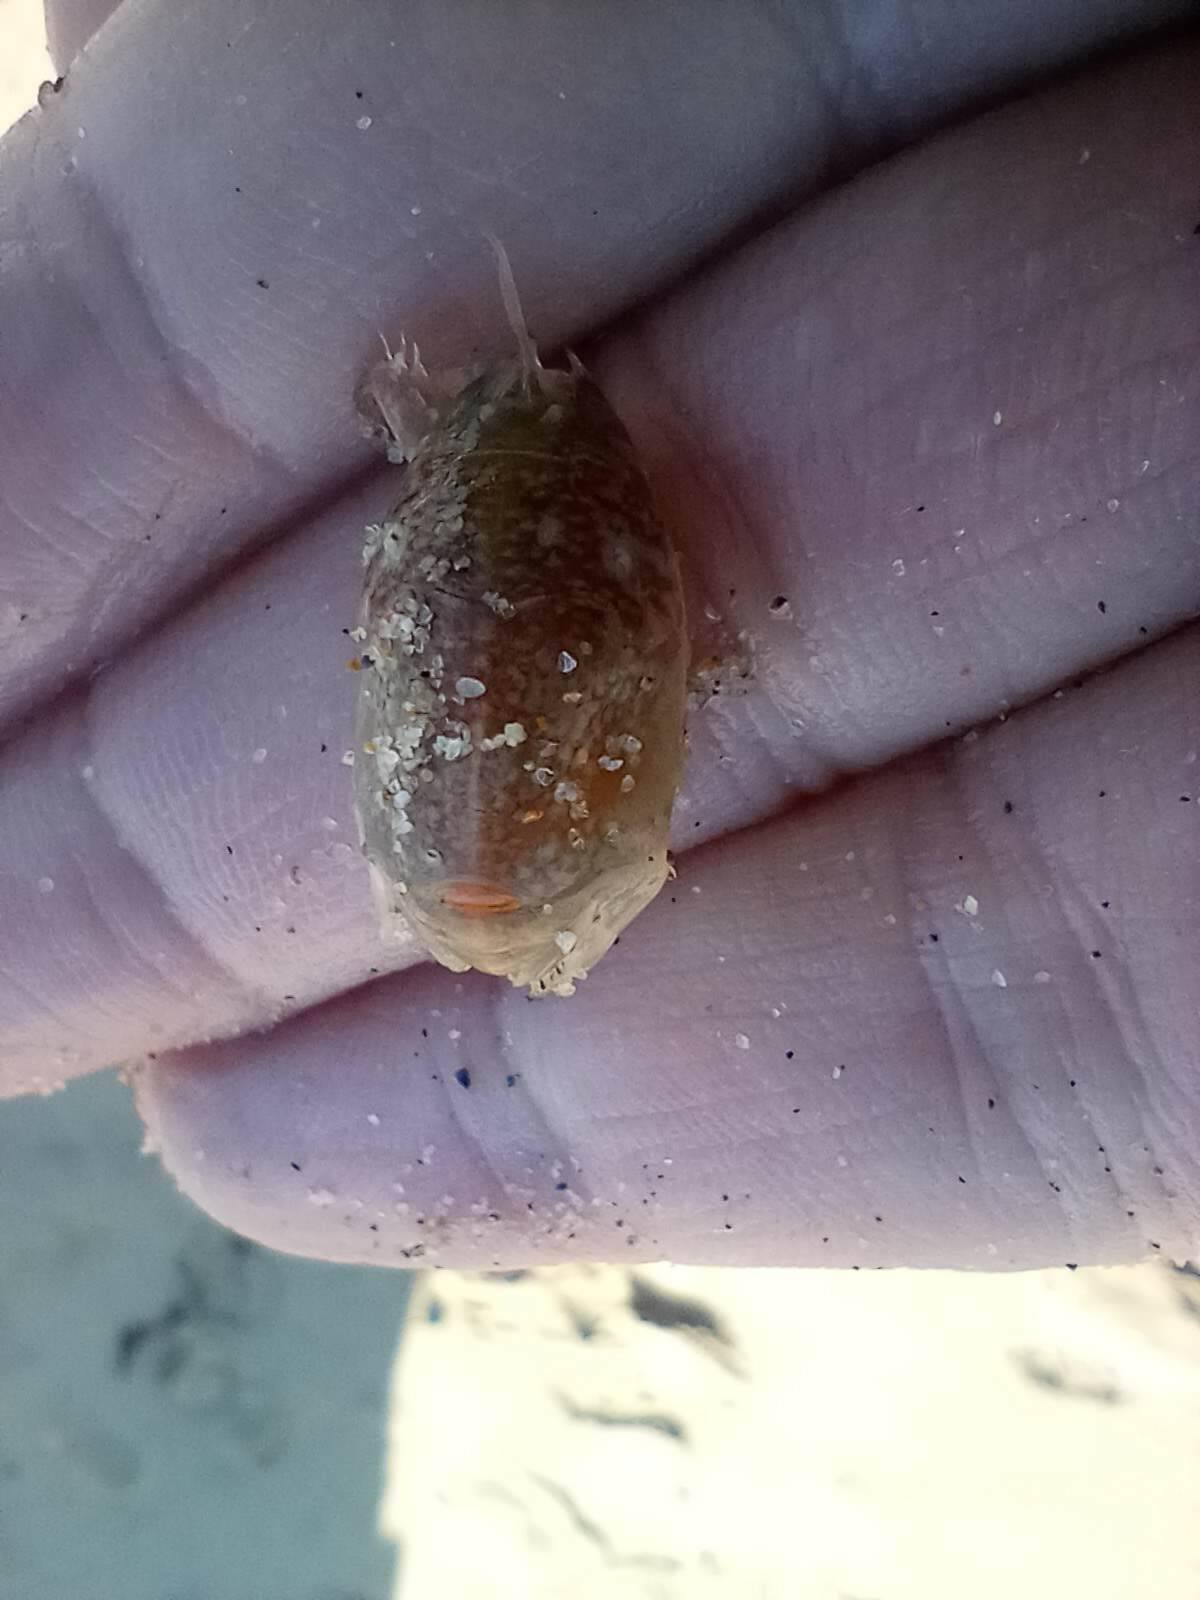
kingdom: Animalia
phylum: Arthropoda
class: Malacostraca
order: Decapoda
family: Hippidae
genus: Emerita
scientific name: Emerita analoga
